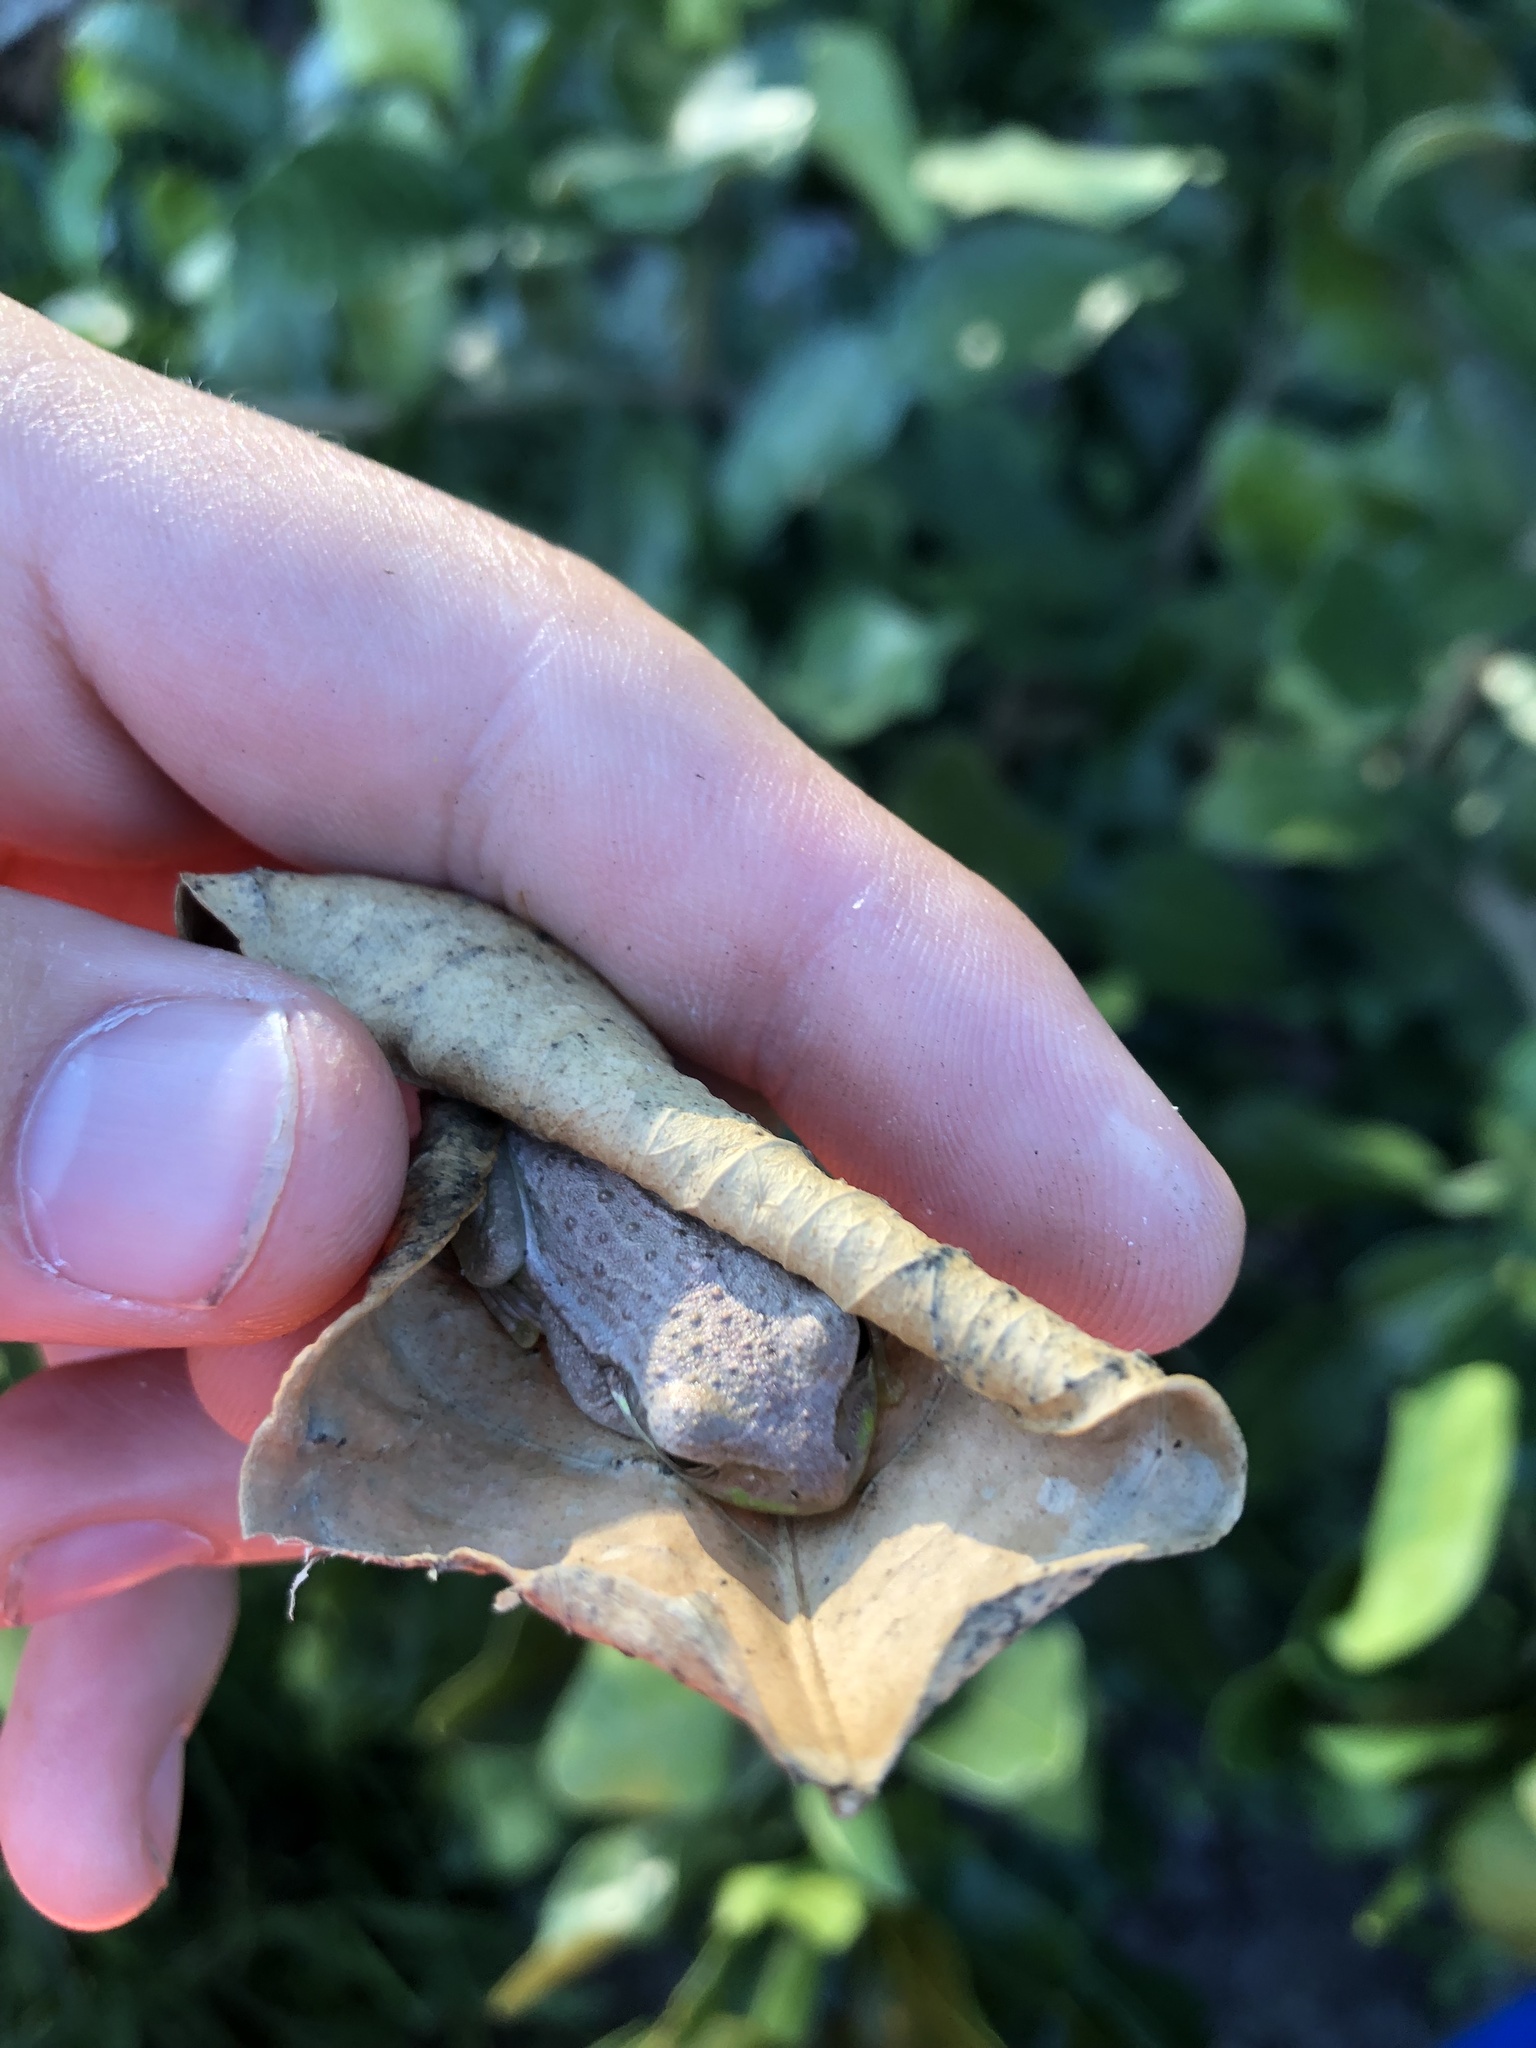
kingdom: Animalia
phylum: Chordata
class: Amphibia
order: Anura
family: Hylidae
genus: Osteopilus
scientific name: Osteopilus septentrionalis
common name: Cuban treefrog
